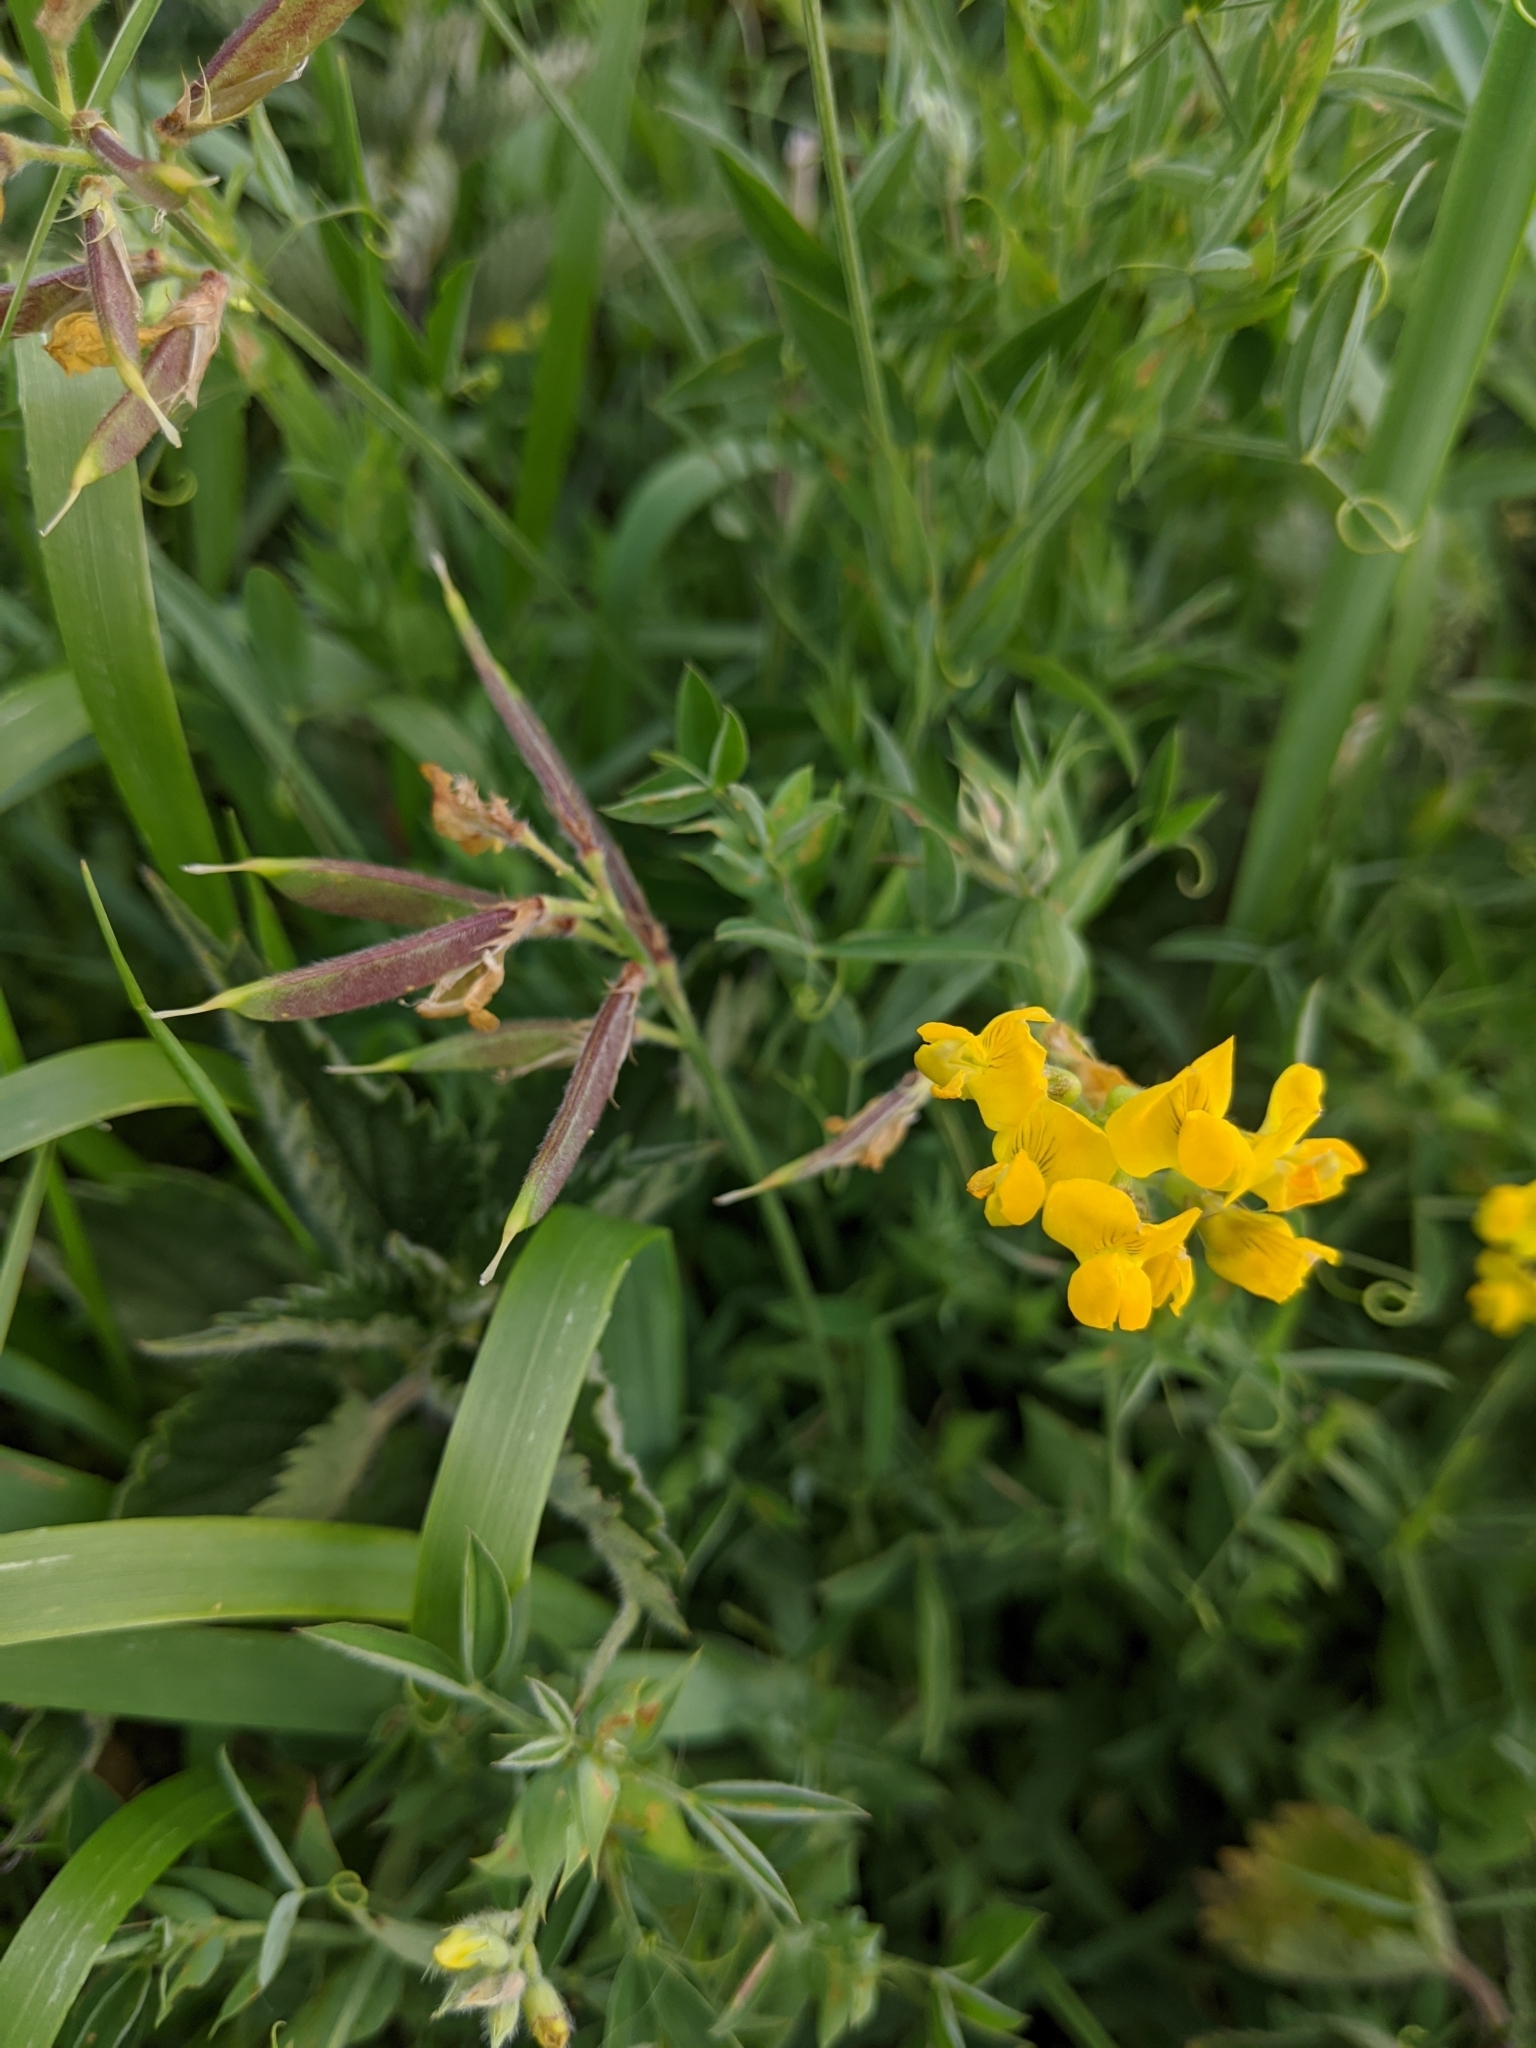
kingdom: Plantae
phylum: Tracheophyta
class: Magnoliopsida
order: Fabales
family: Fabaceae
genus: Lathyrus
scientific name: Lathyrus pratensis
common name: Meadow vetchling
